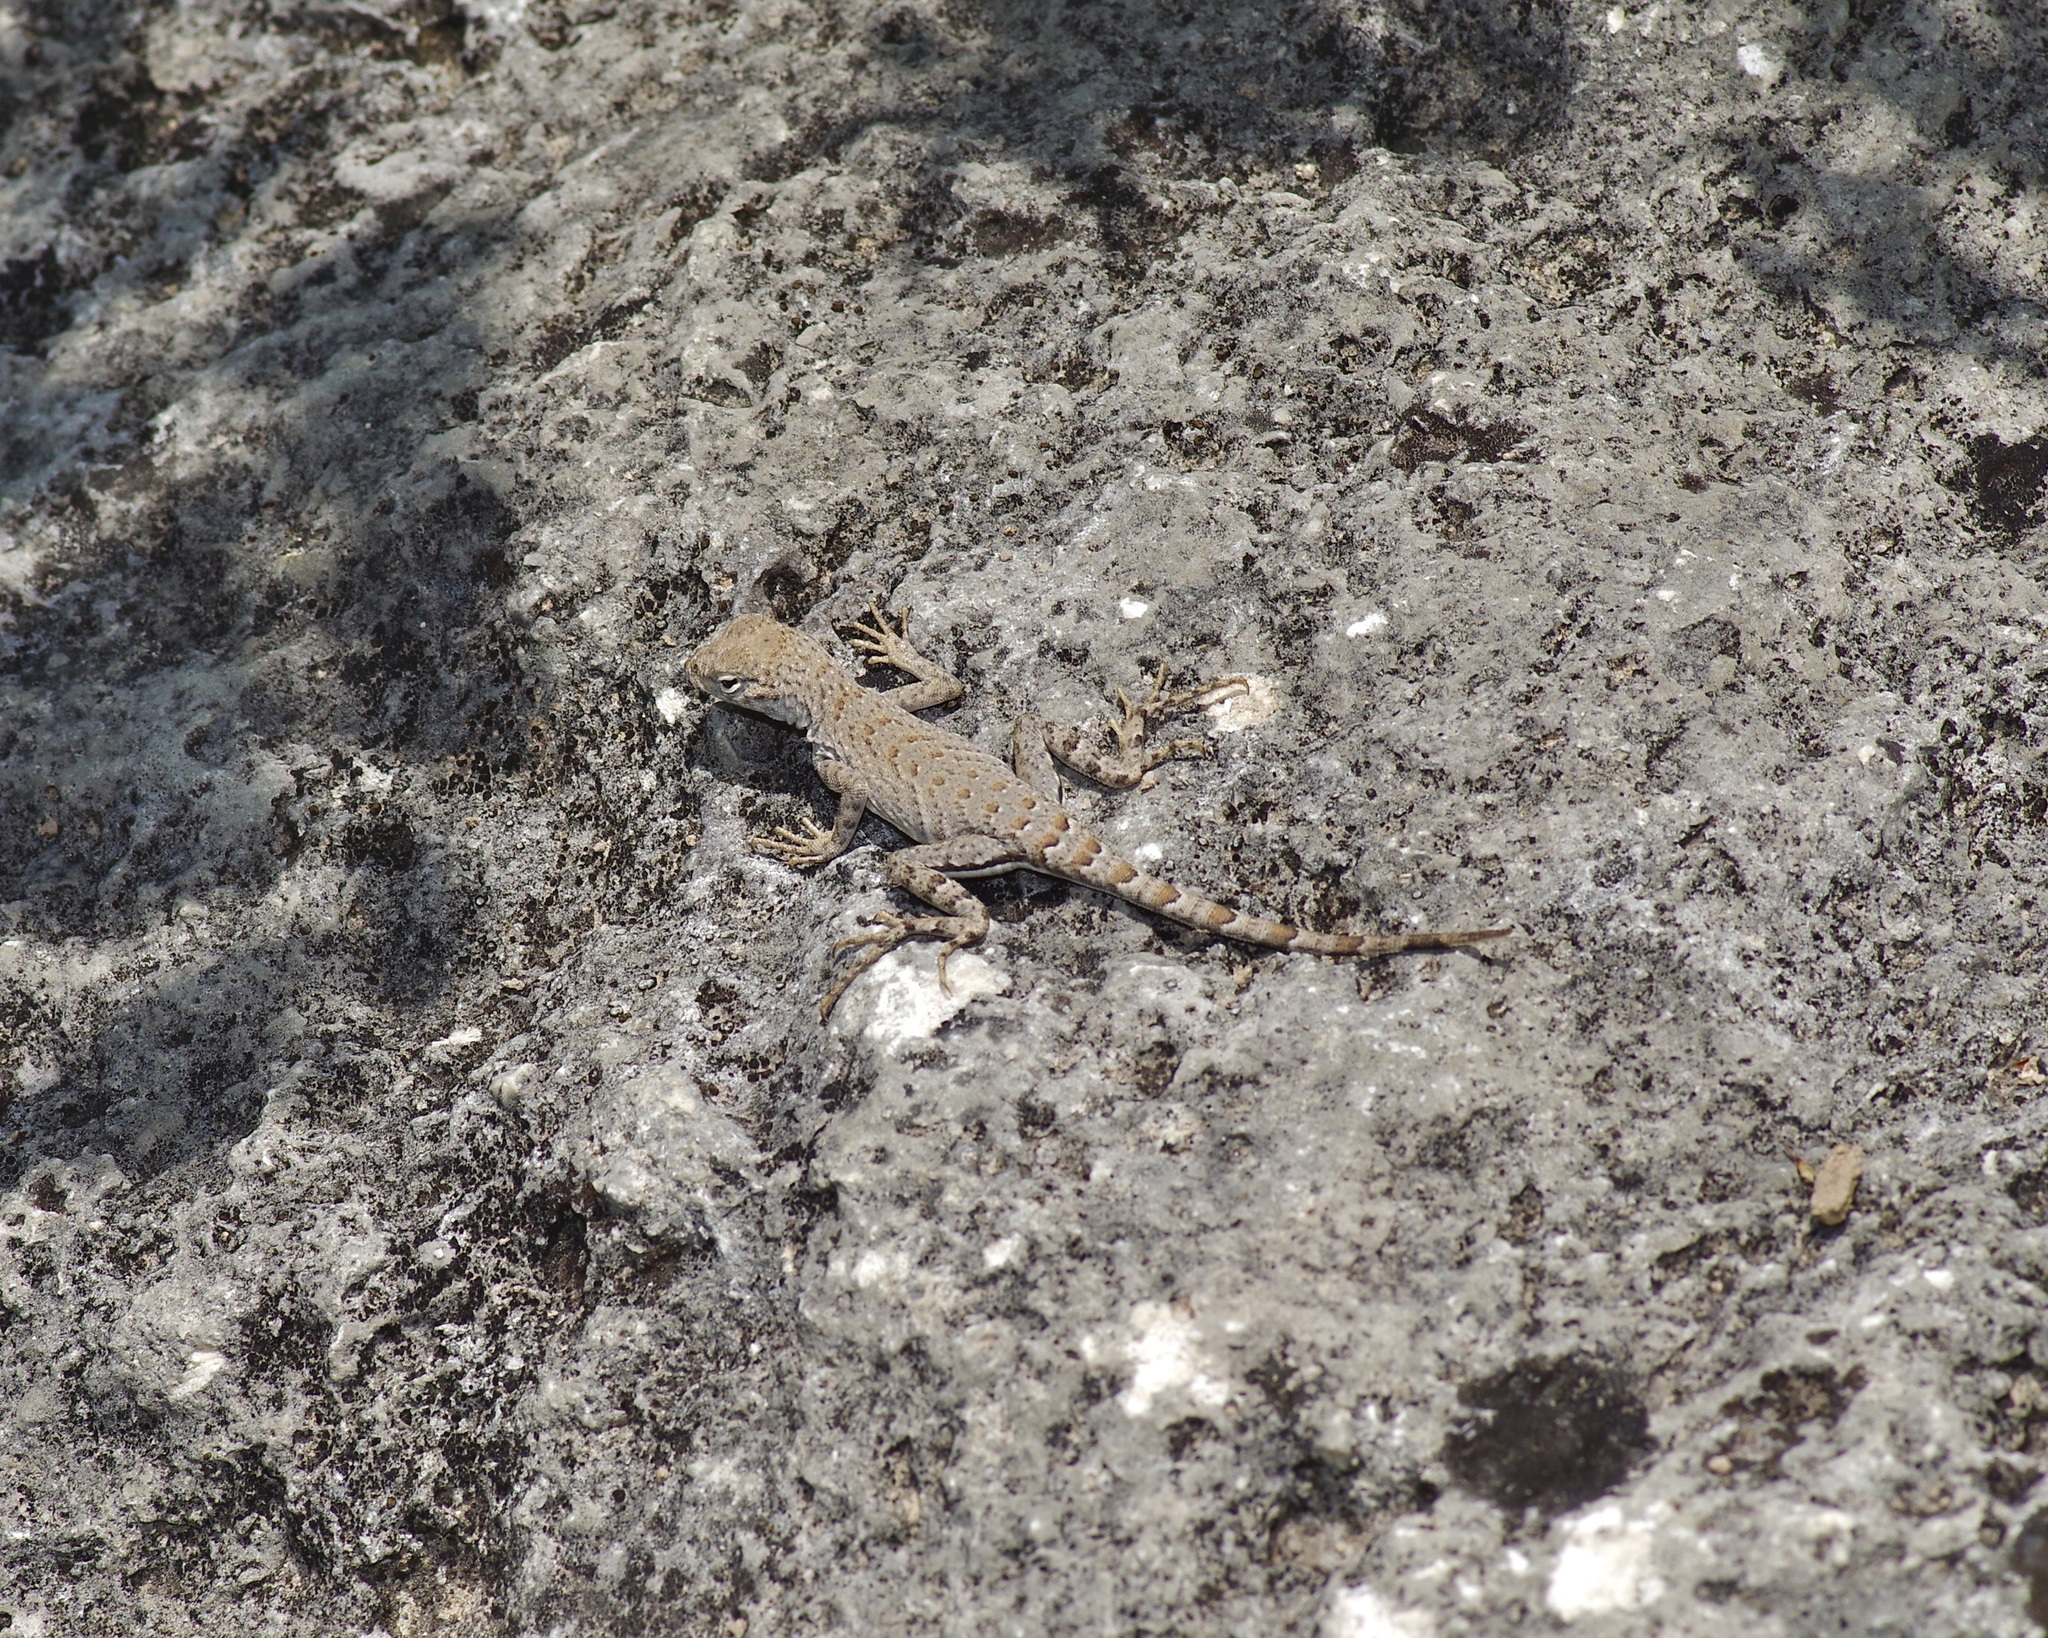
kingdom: Animalia
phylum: Chordata
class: Squamata
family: Phrynosomatidae
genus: Cophosaurus
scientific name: Cophosaurus texanus
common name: Greater earless lizard
